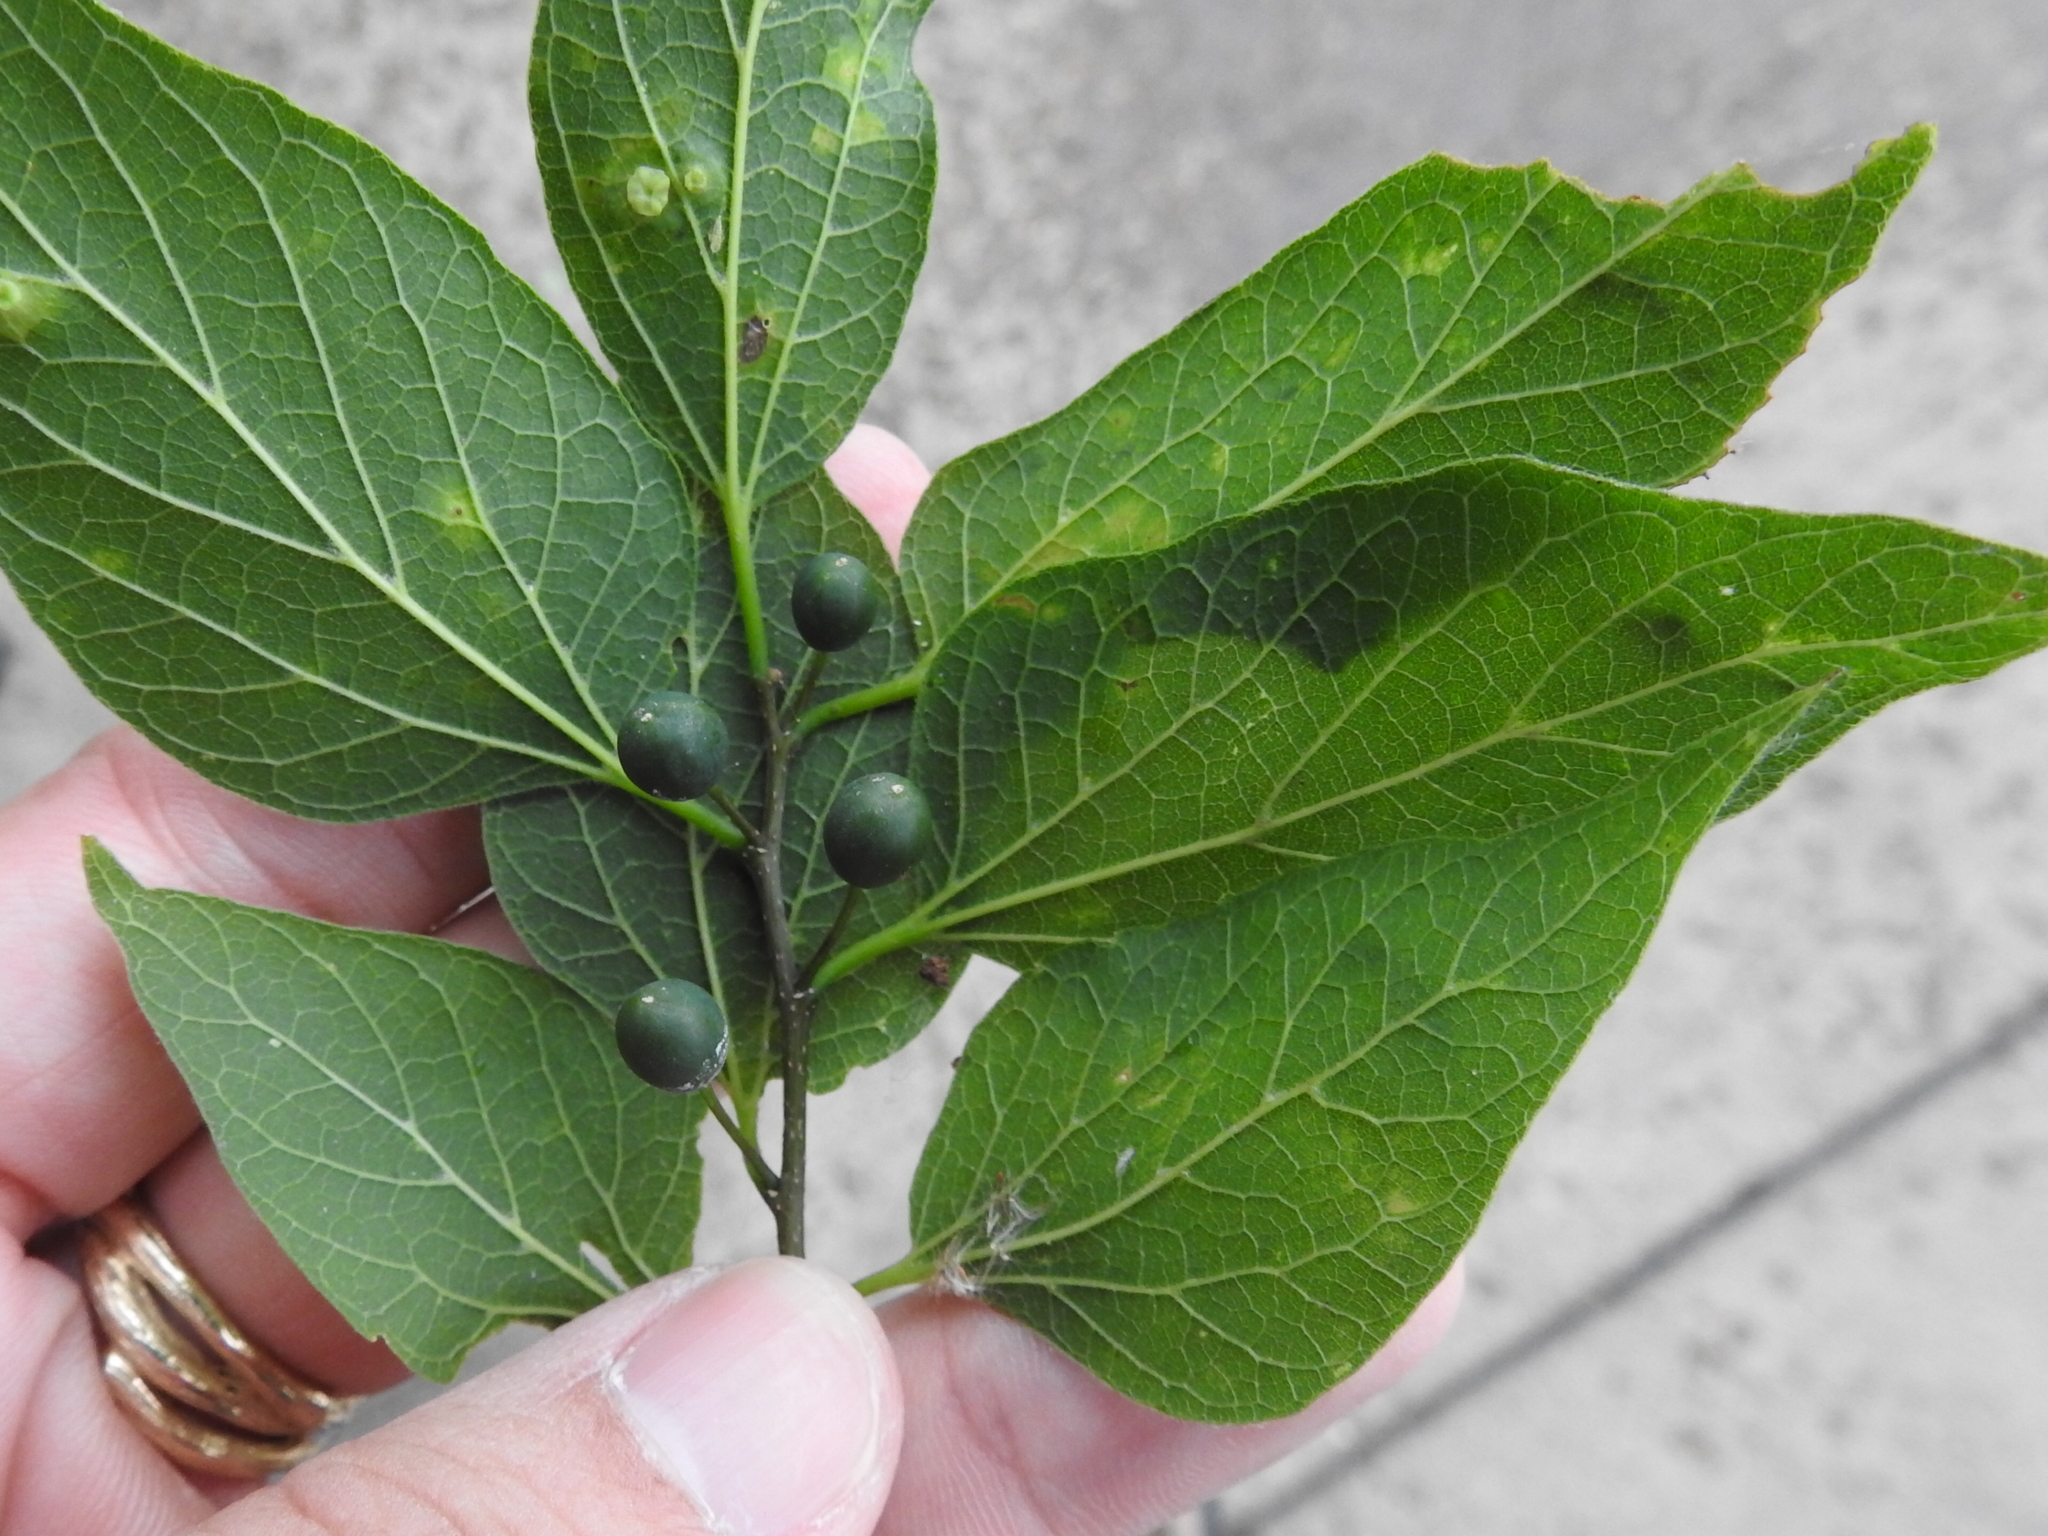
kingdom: Plantae
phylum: Tracheophyta
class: Magnoliopsida
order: Rosales
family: Cannabaceae
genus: Celtis
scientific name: Celtis laevigata
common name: Sugarberry
